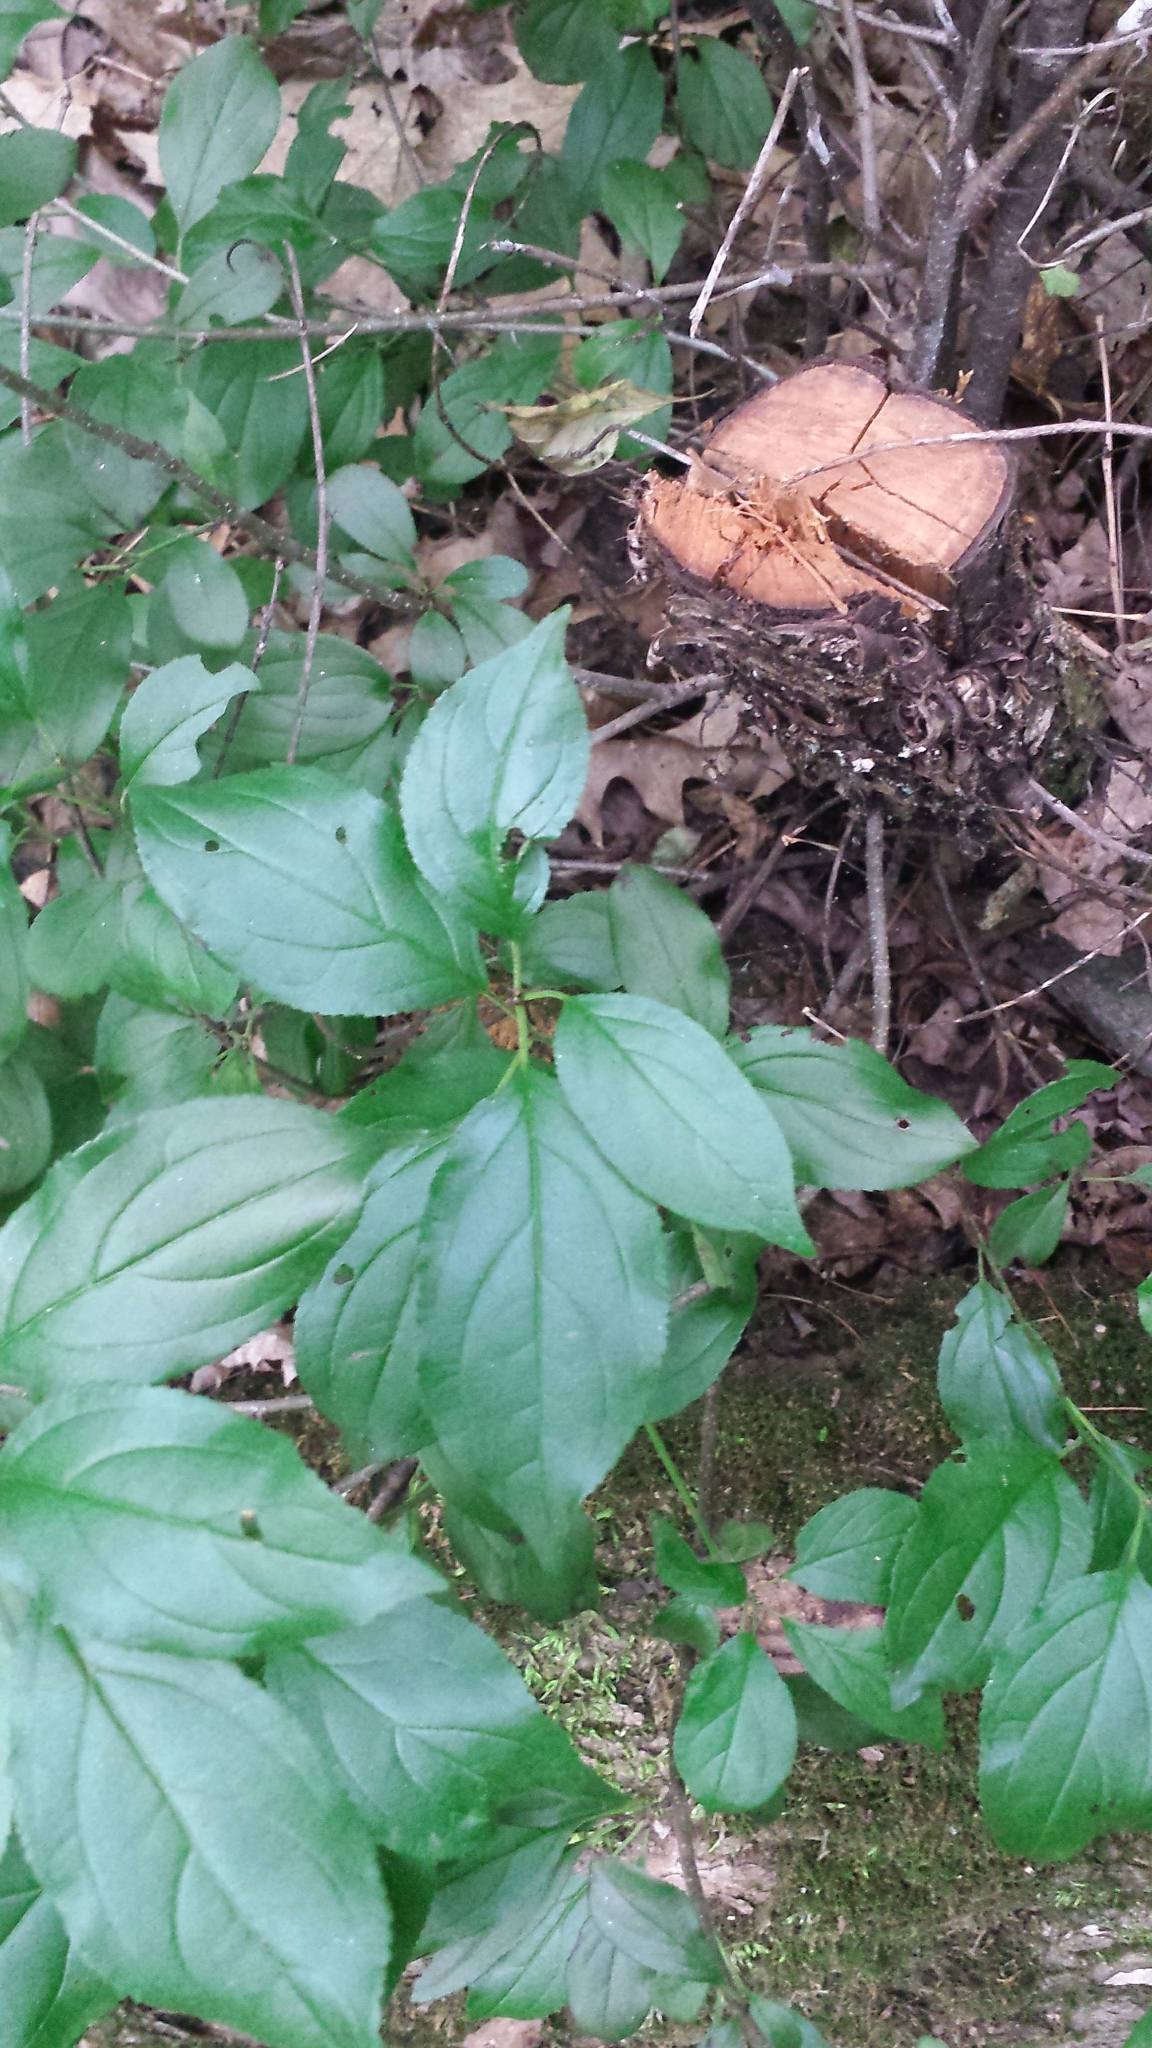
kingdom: Plantae
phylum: Tracheophyta
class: Magnoliopsida
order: Rosales
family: Rhamnaceae
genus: Rhamnus
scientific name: Rhamnus cathartica
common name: Common buckthorn
